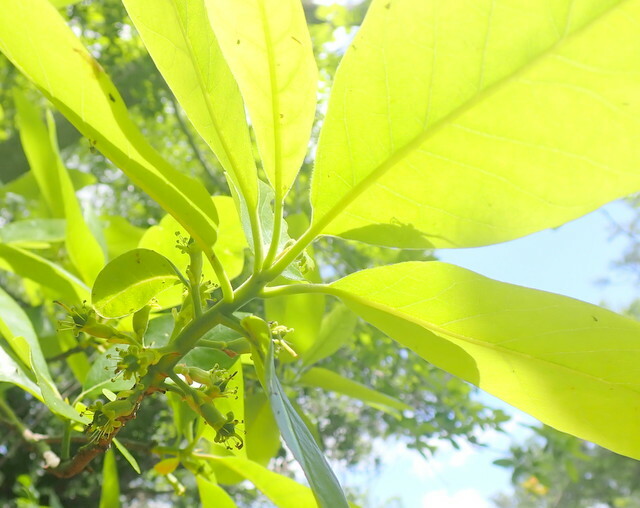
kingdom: Plantae
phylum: Tracheophyta
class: Magnoliopsida
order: Cornales
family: Nyssaceae
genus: Nyssa
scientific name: Nyssa ogeche
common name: Ogeechee tupelo
